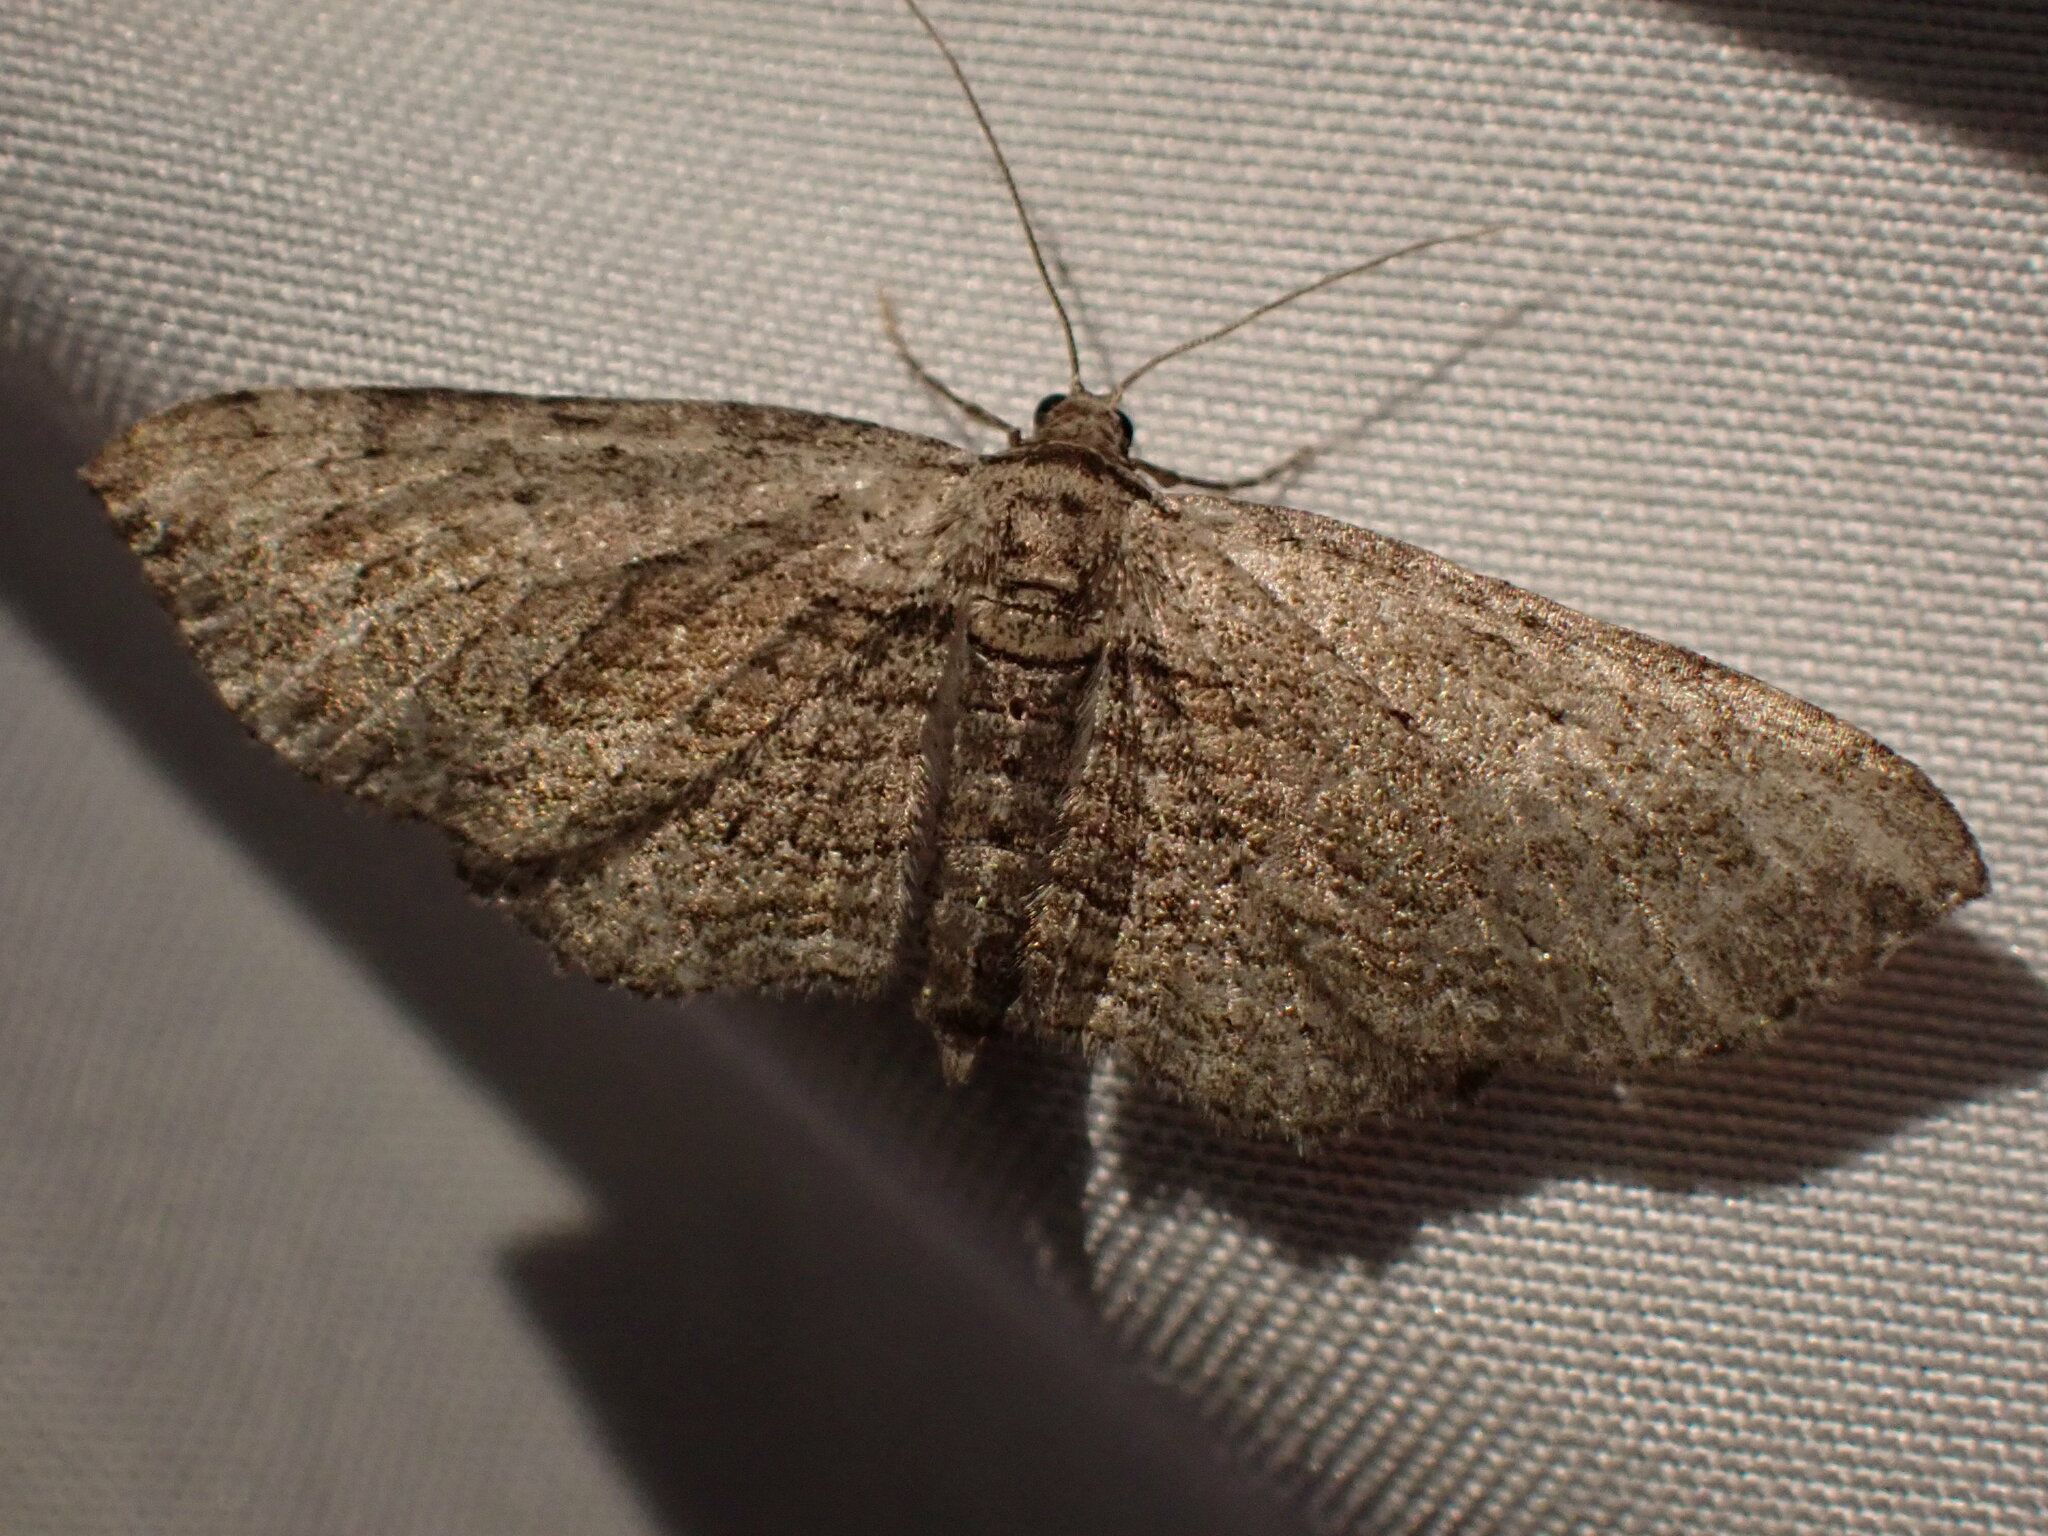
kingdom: Animalia
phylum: Arthropoda
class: Insecta
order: Lepidoptera
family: Geometridae
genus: Horisme
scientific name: Horisme intestinata
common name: Brown bark carpet
